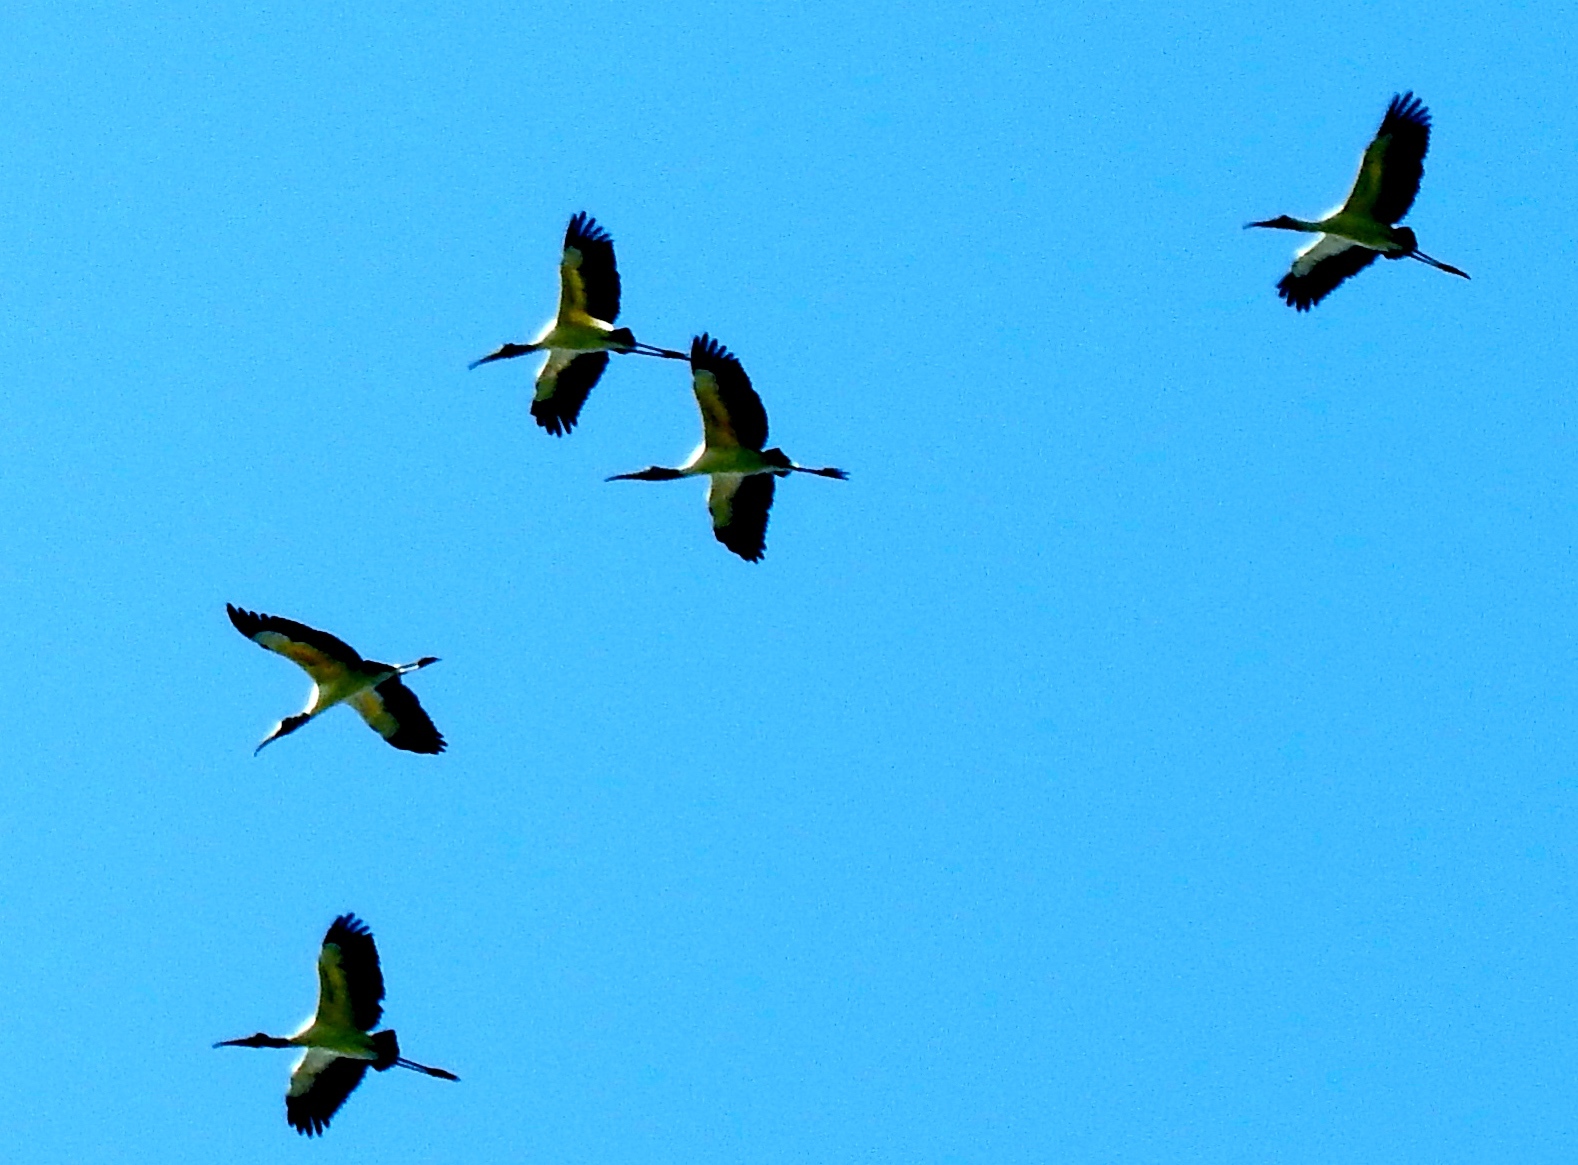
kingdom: Animalia
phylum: Chordata
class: Aves
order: Ciconiiformes
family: Ciconiidae
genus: Mycteria
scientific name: Mycteria americana
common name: Wood stork
